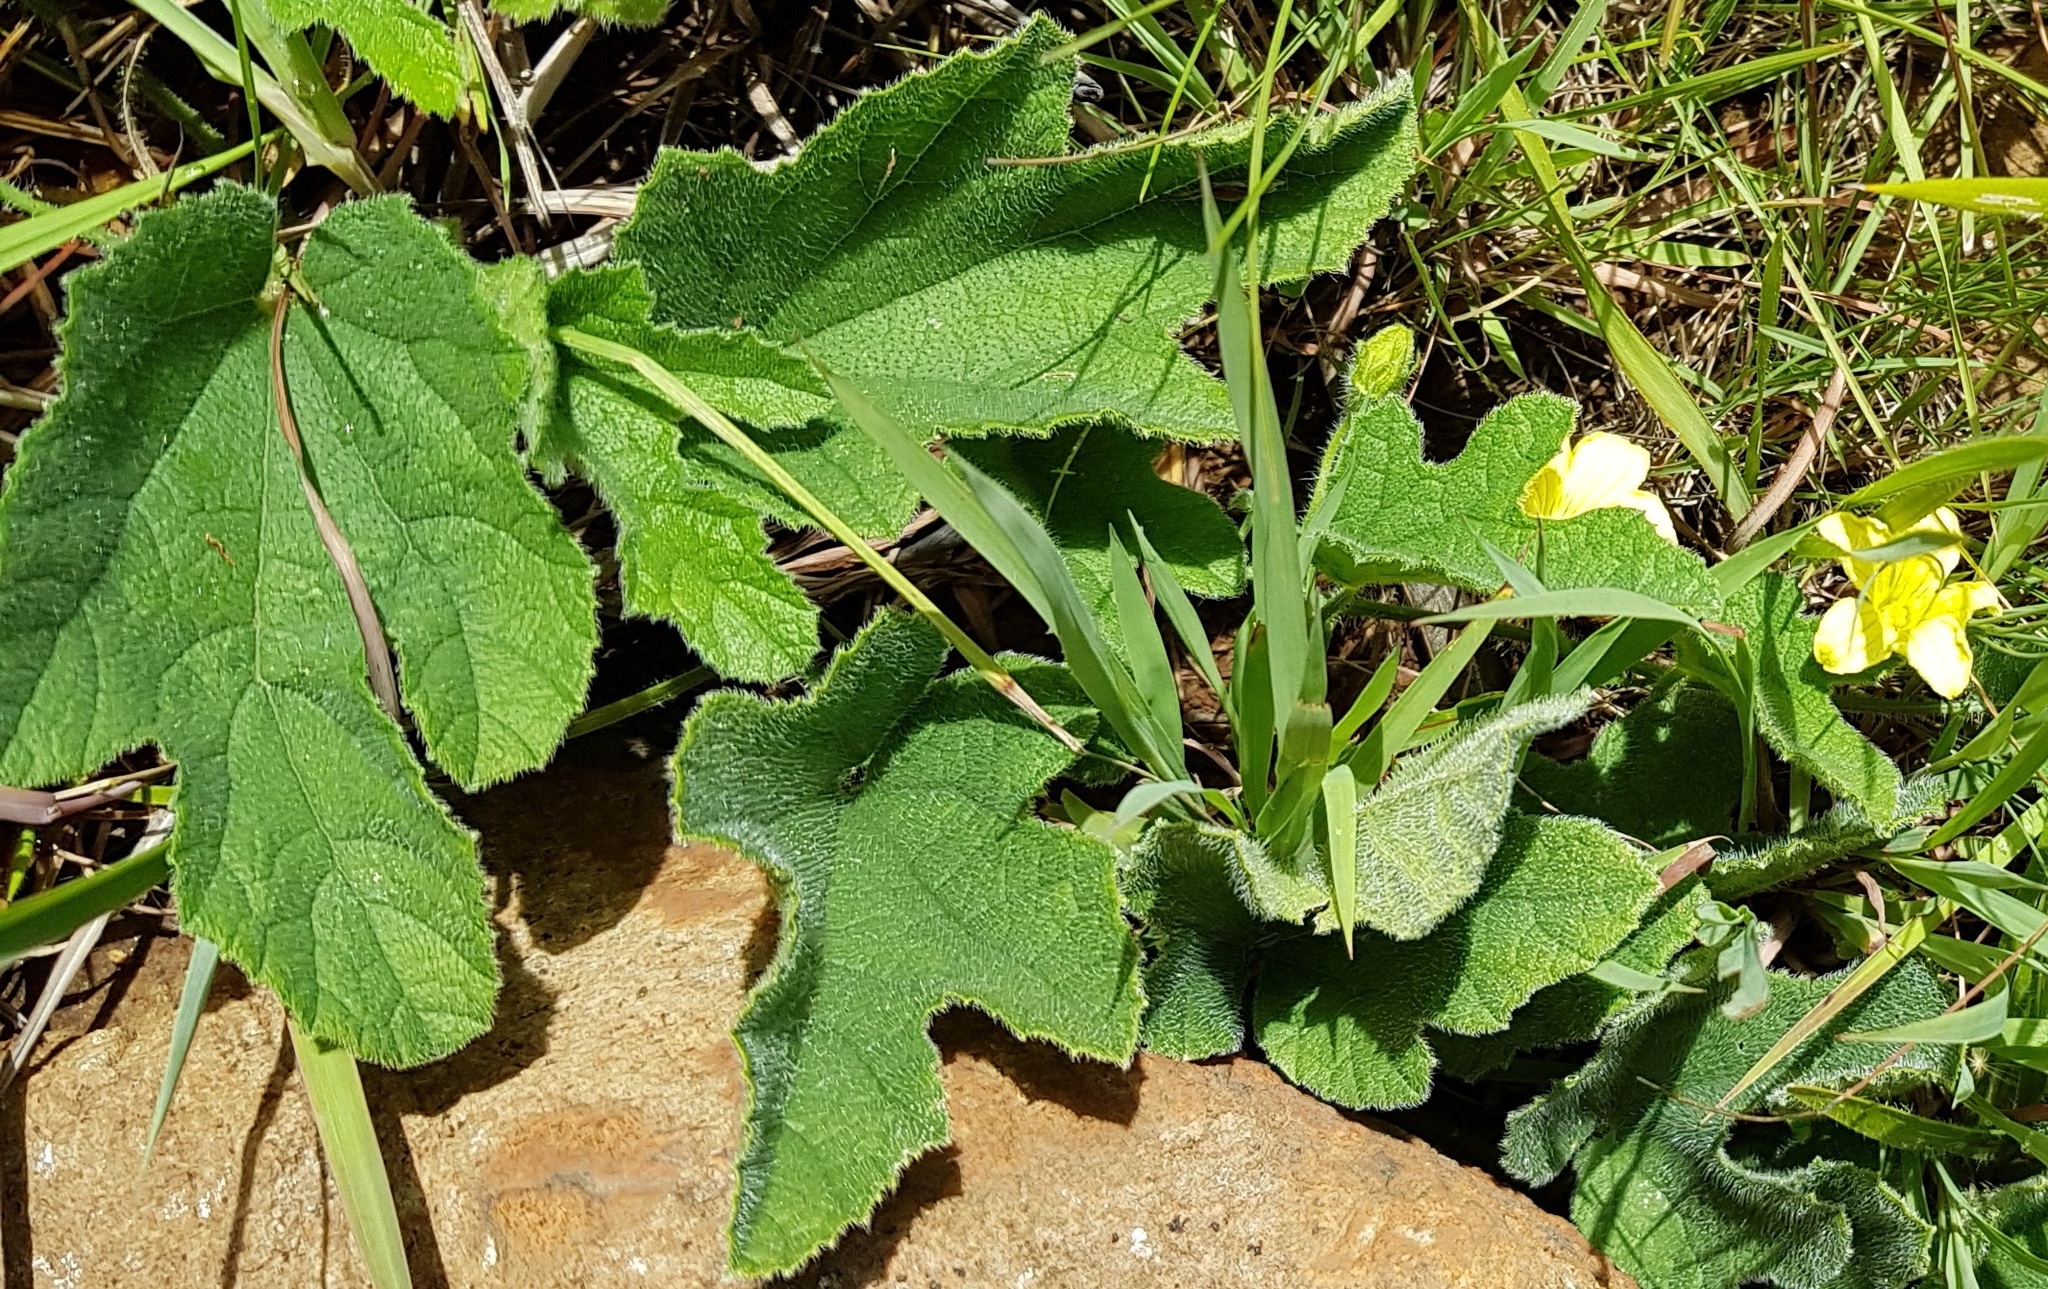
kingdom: Plantae
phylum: Tracheophyta
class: Magnoliopsida
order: Cucurbitales
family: Cucurbitaceae
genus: Cucumis
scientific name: Cucumis hirsutus
